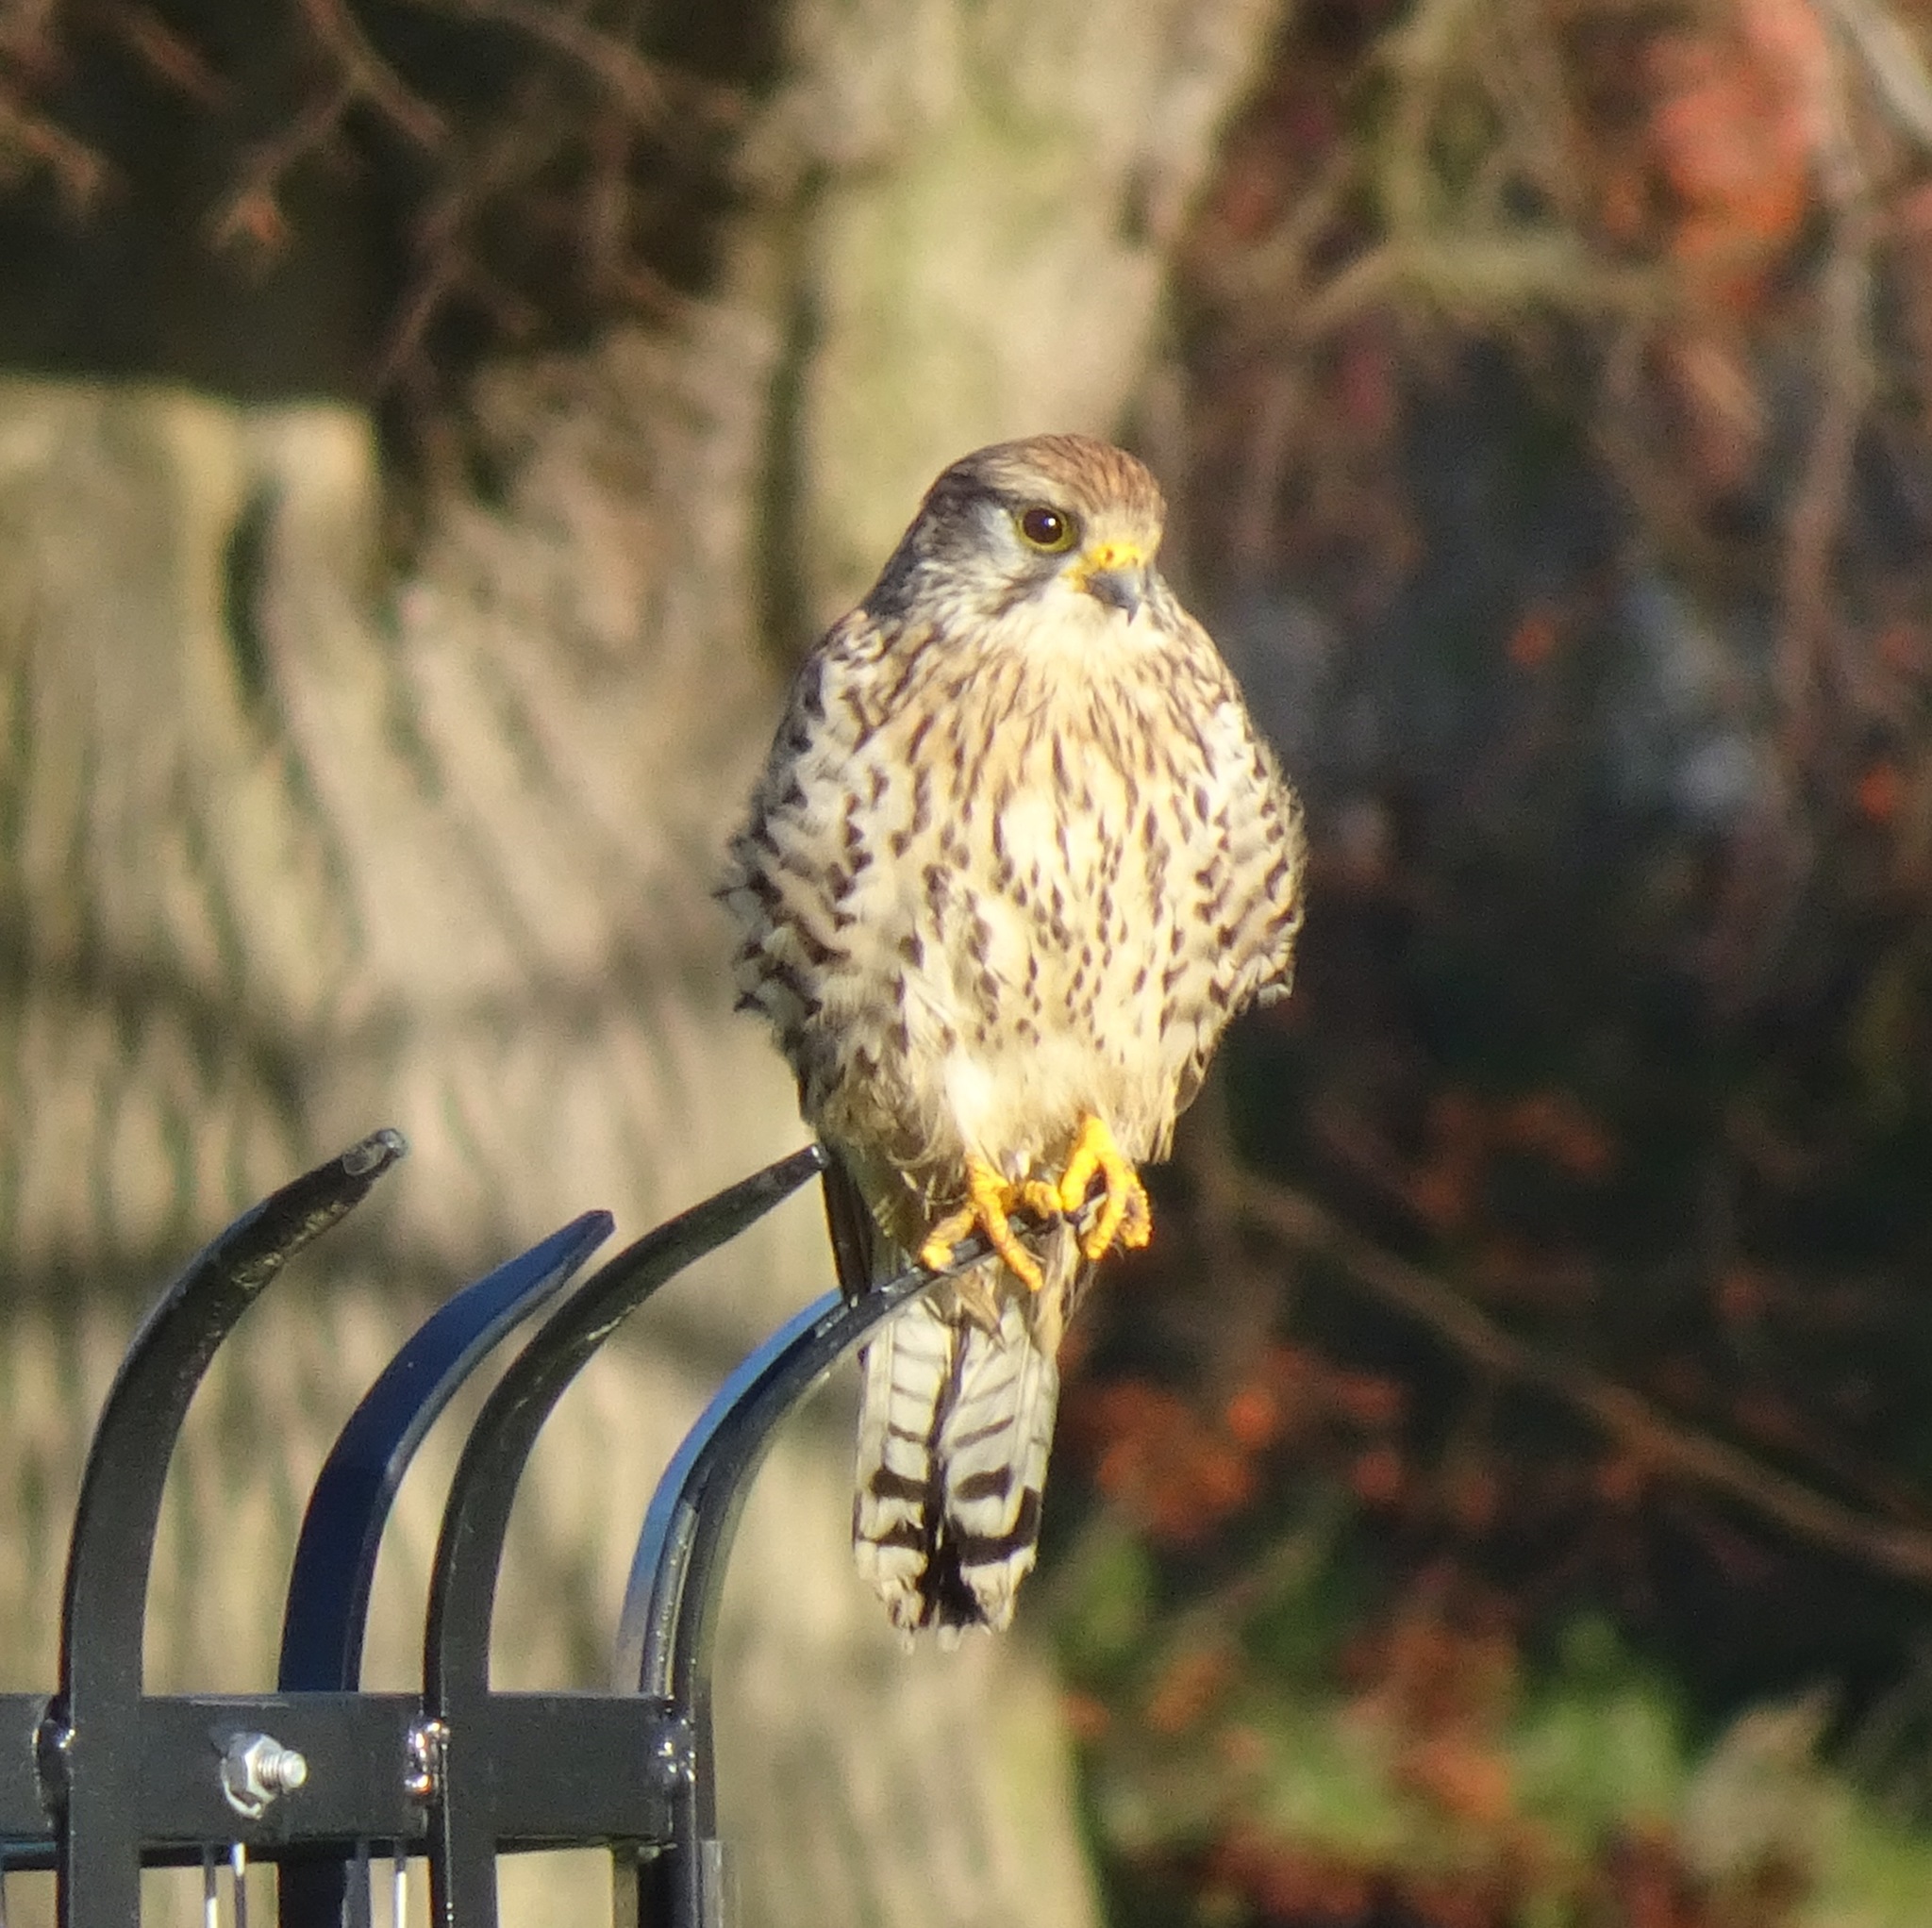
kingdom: Animalia
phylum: Chordata
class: Aves
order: Falconiformes
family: Falconidae
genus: Falco
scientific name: Falco tinnunculus
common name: Common kestrel
